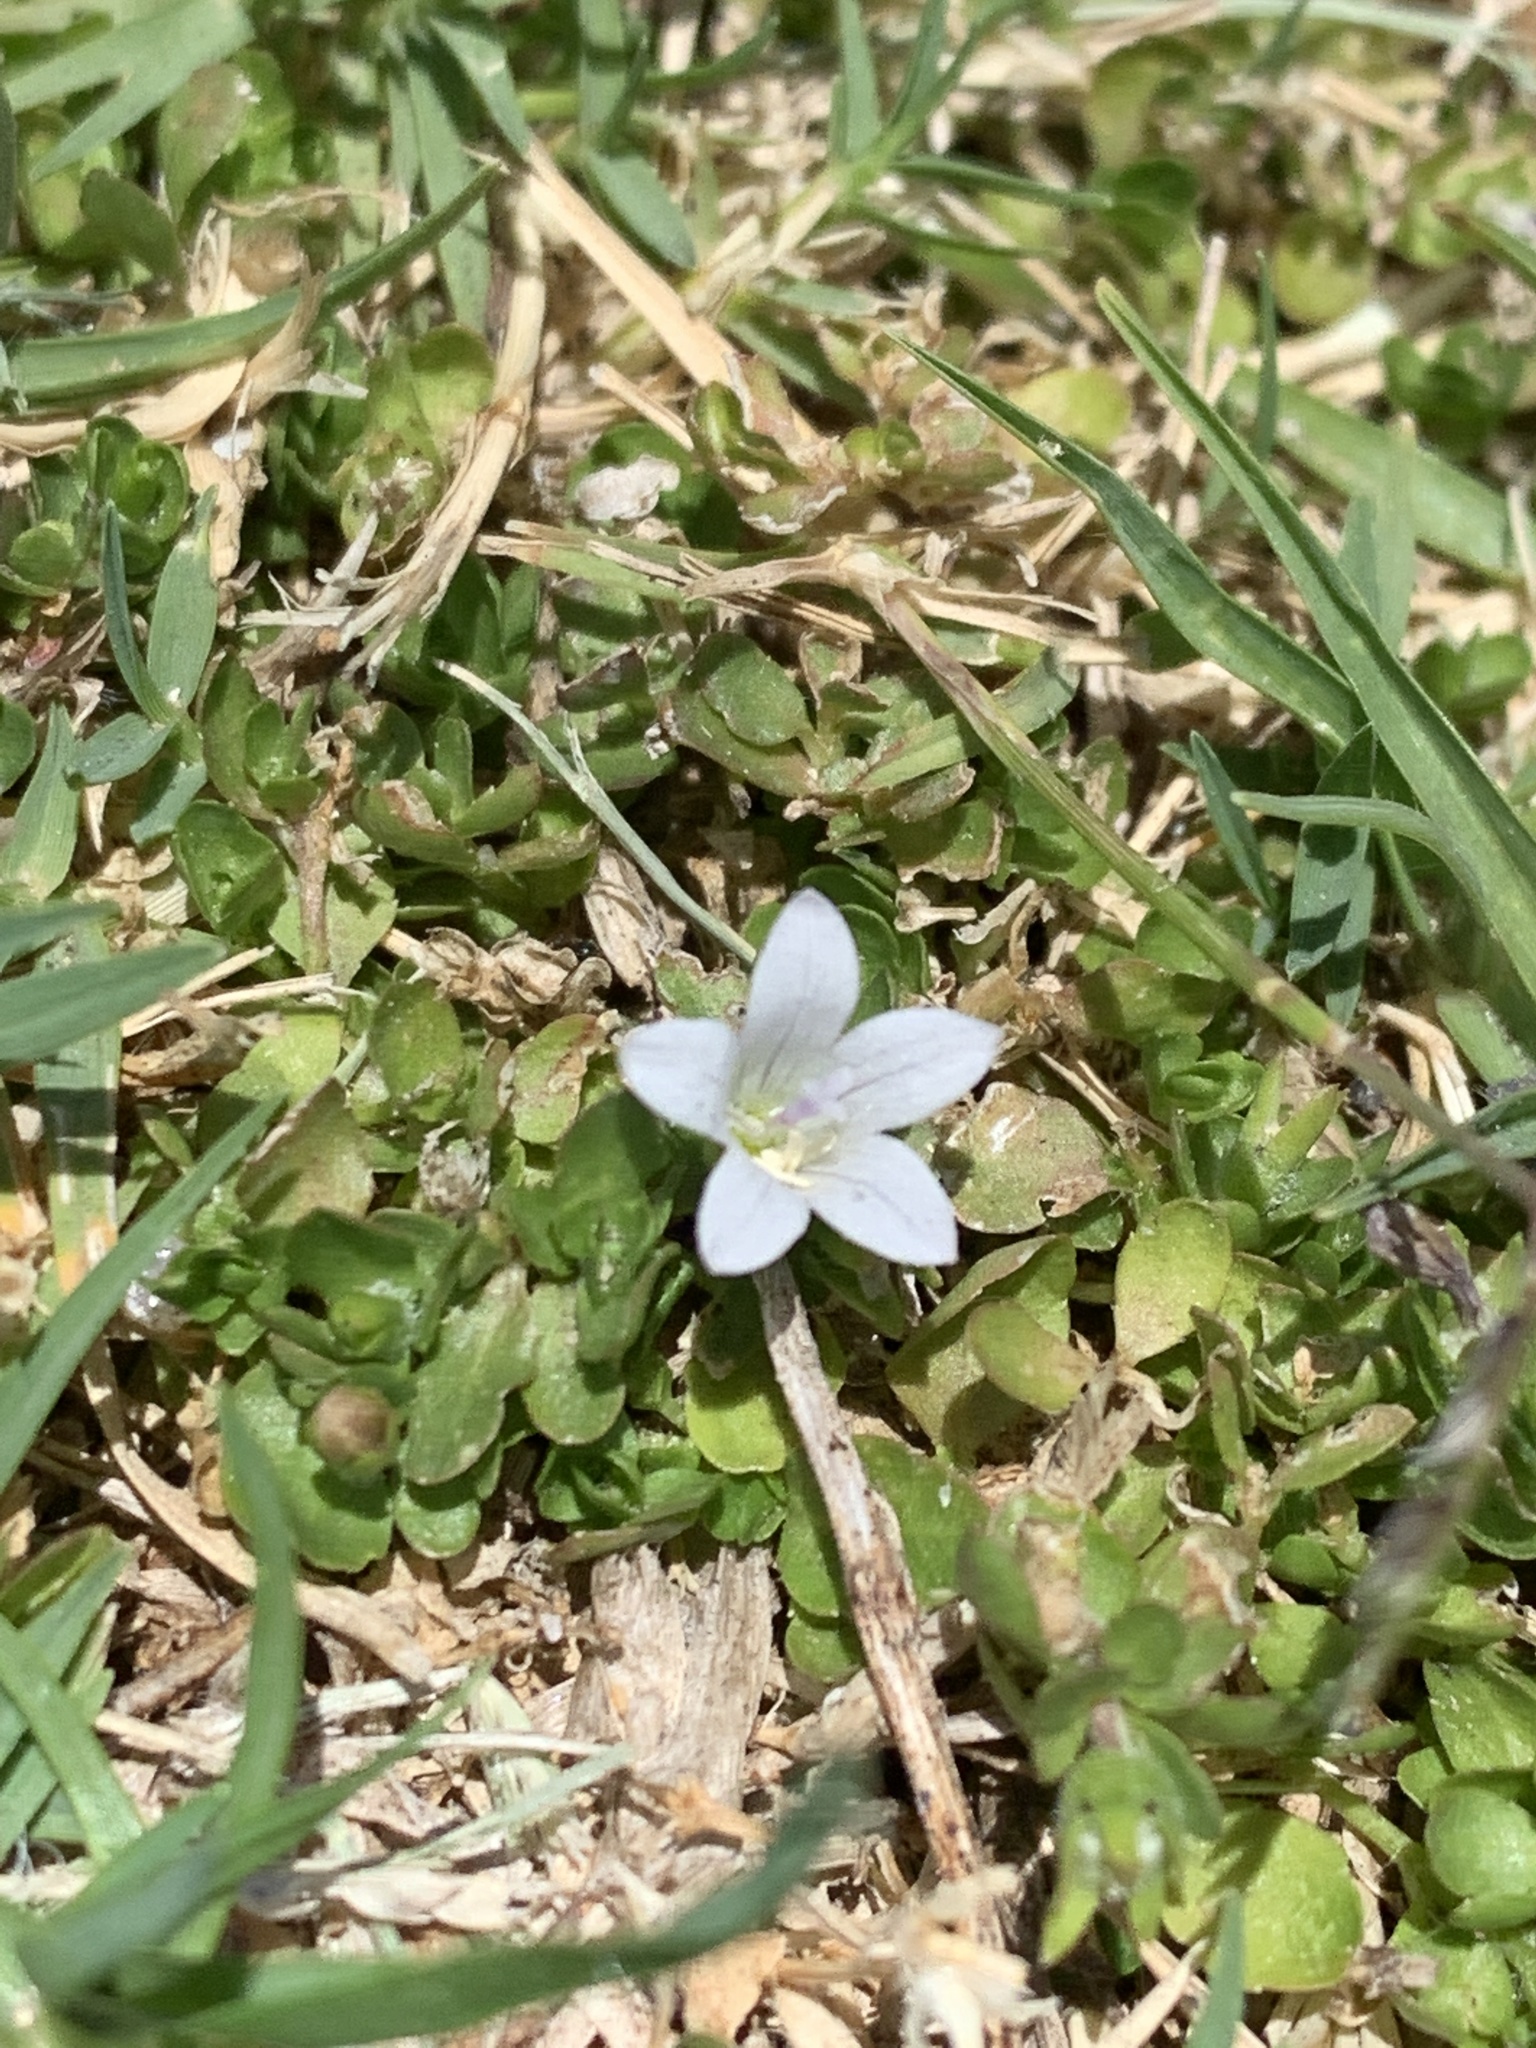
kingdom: Plantae
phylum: Tracheophyta
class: Magnoliopsida
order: Asterales
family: Campanulaceae
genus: Wahlenbergia
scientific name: Wahlenbergia procumbens
